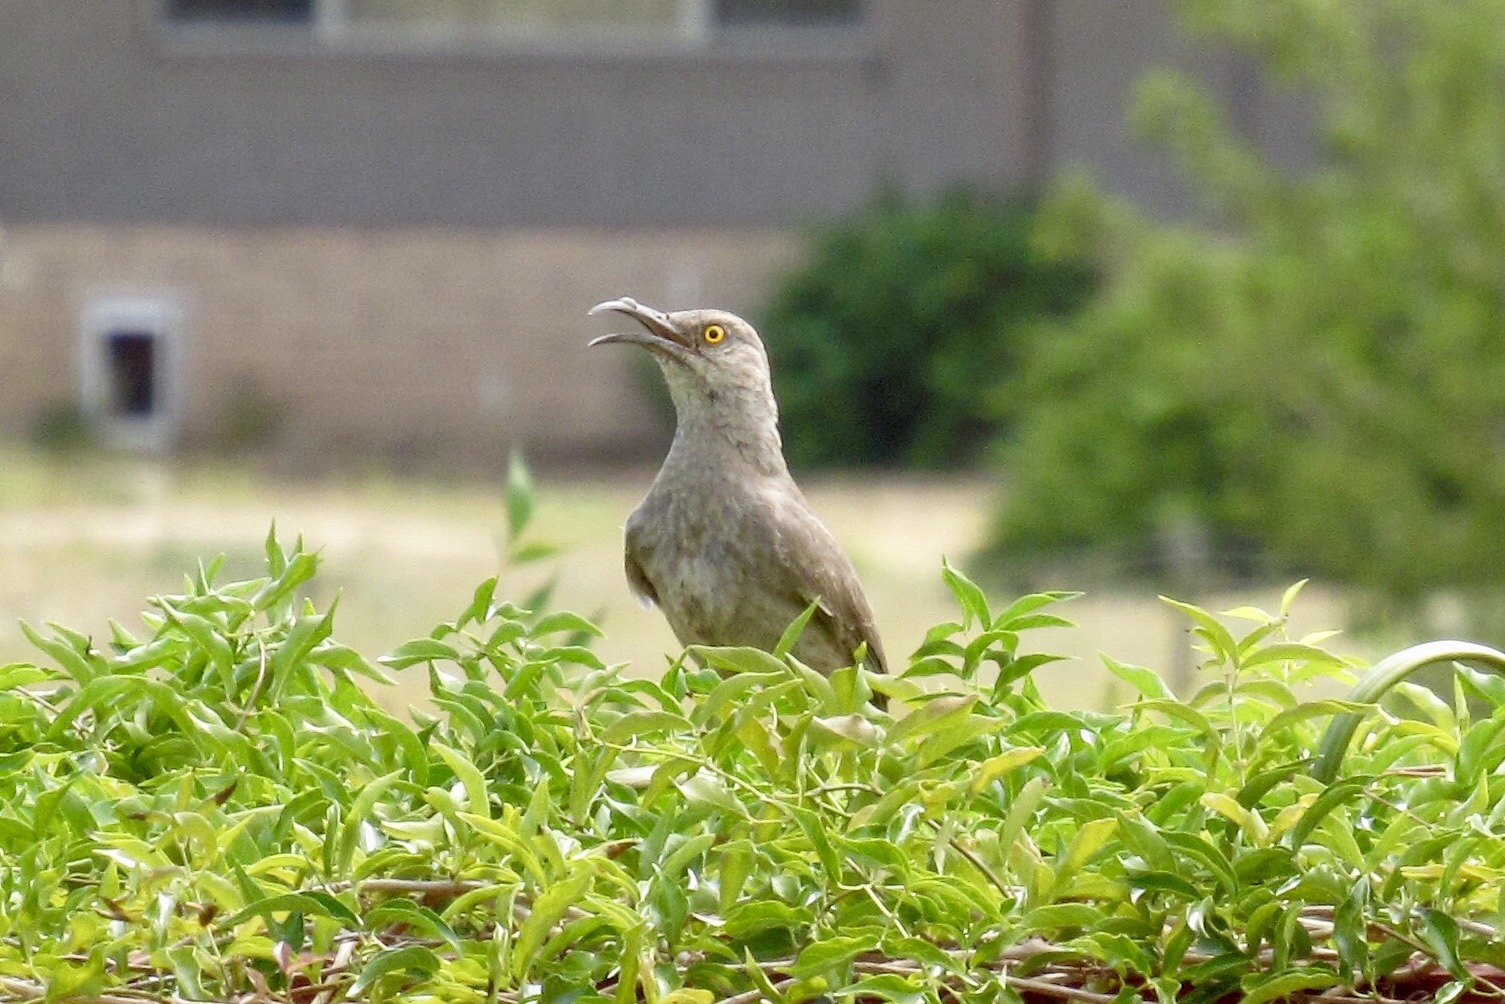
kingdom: Animalia
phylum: Chordata
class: Aves
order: Passeriformes
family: Mimidae
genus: Toxostoma
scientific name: Toxostoma curvirostre
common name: Curve-billed thrasher
